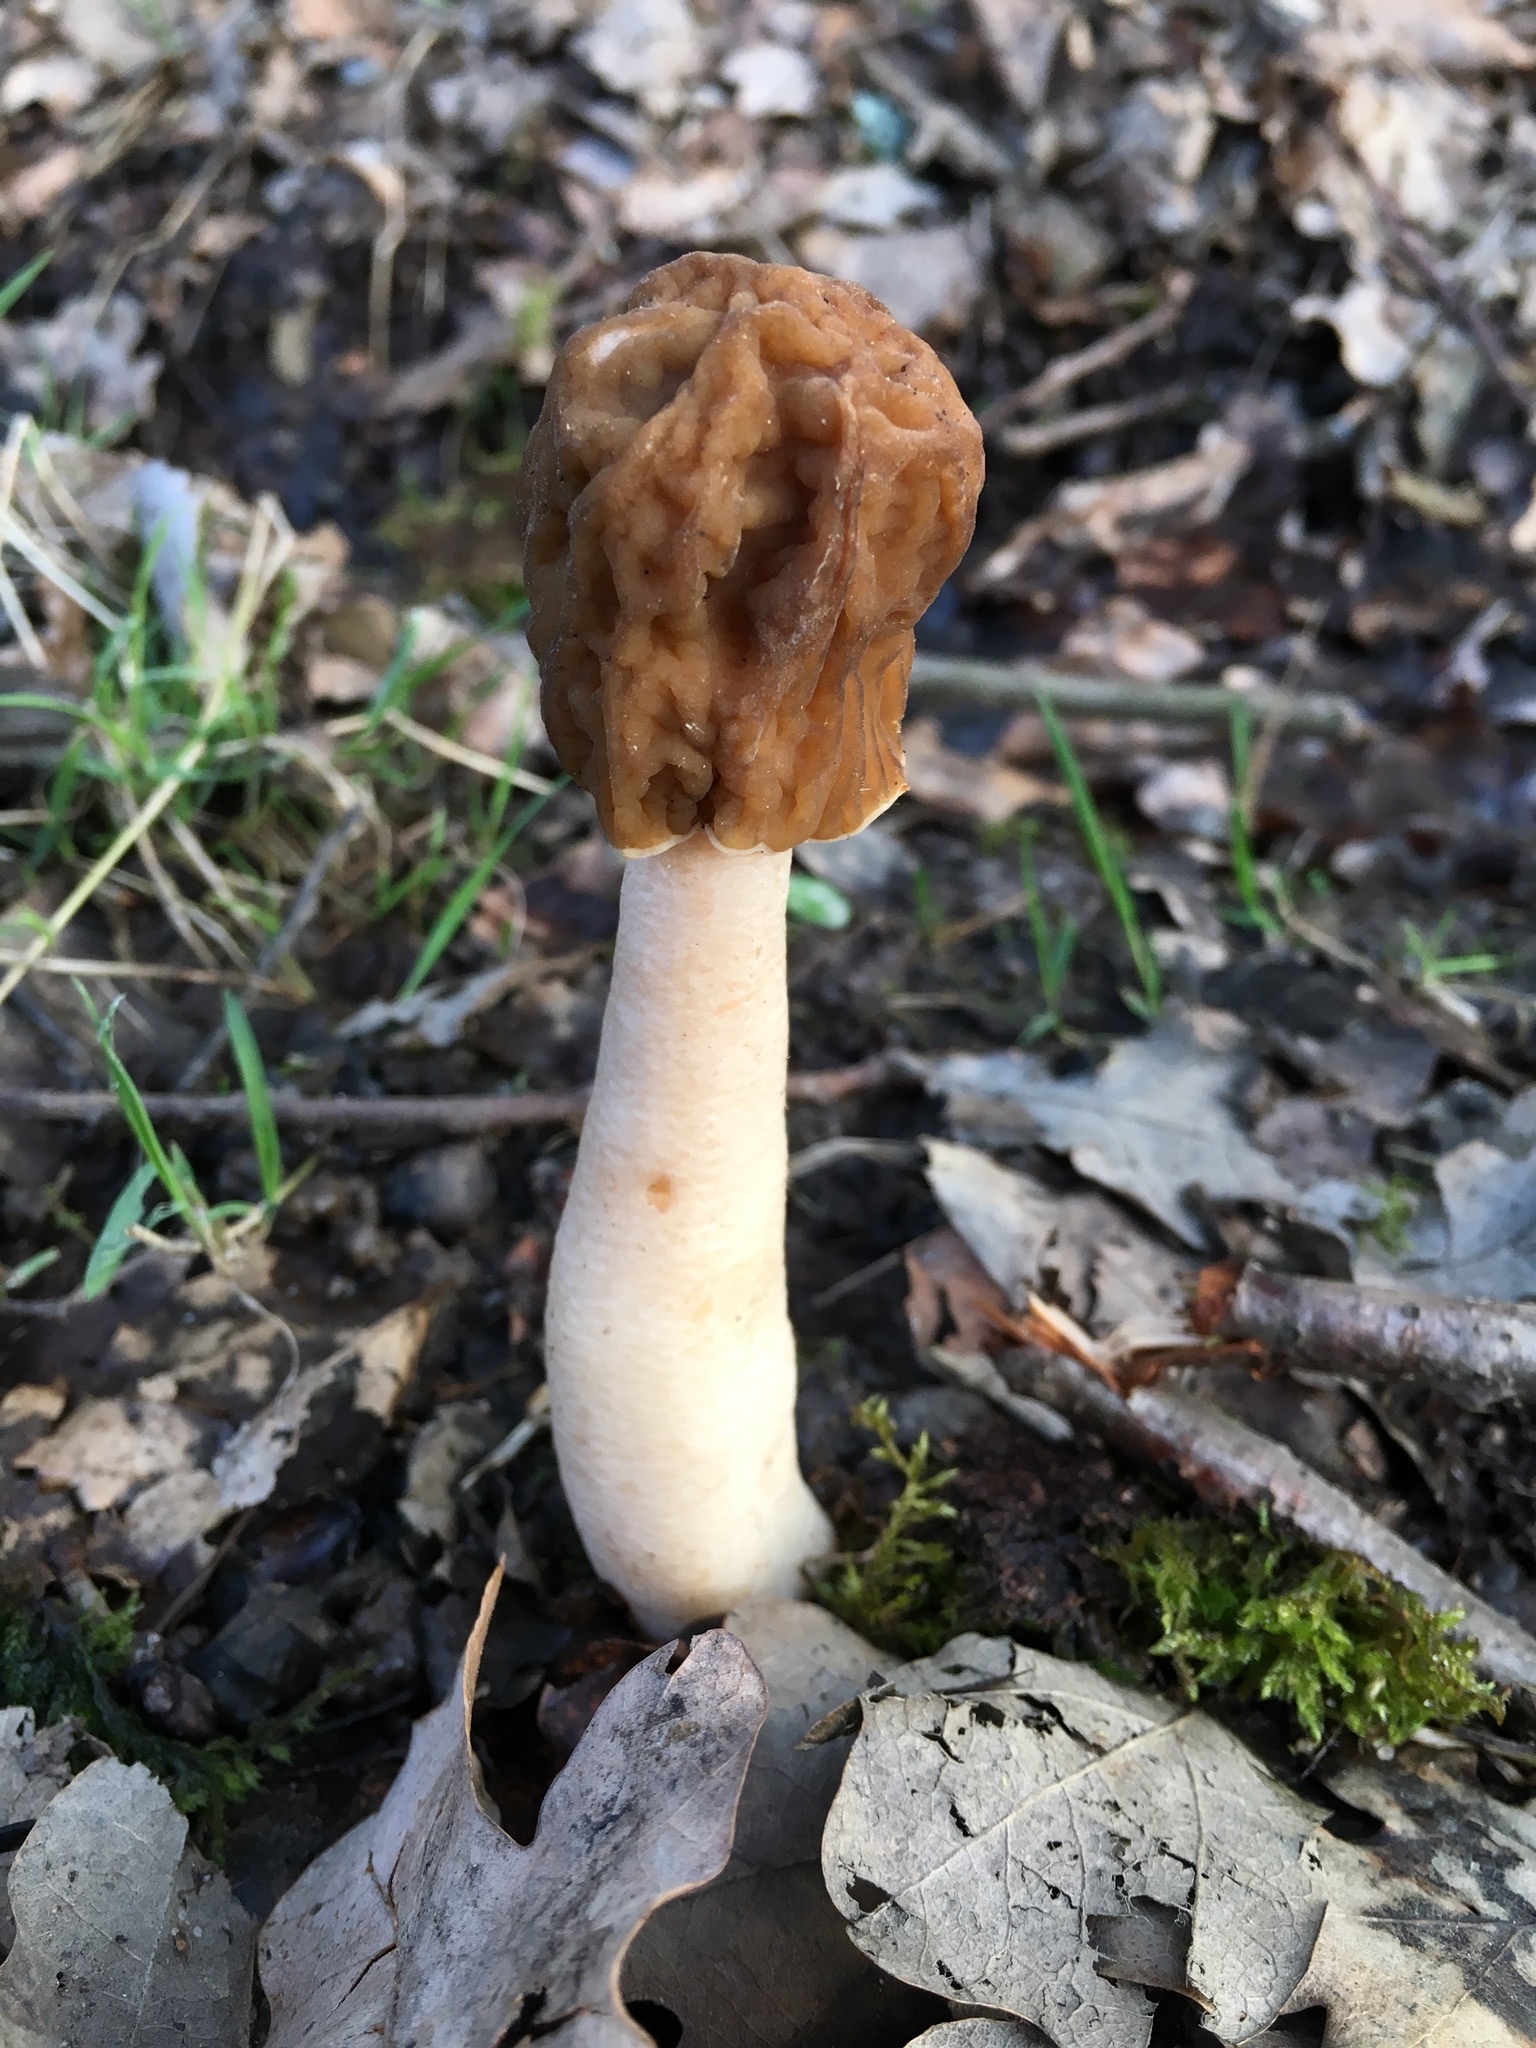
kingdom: Fungi
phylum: Ascomycota
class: Pezizomycetes
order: Pezizales
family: Morchellaceae
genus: Verpa
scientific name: Verpa bohemica
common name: Wrinkled thimble morel
